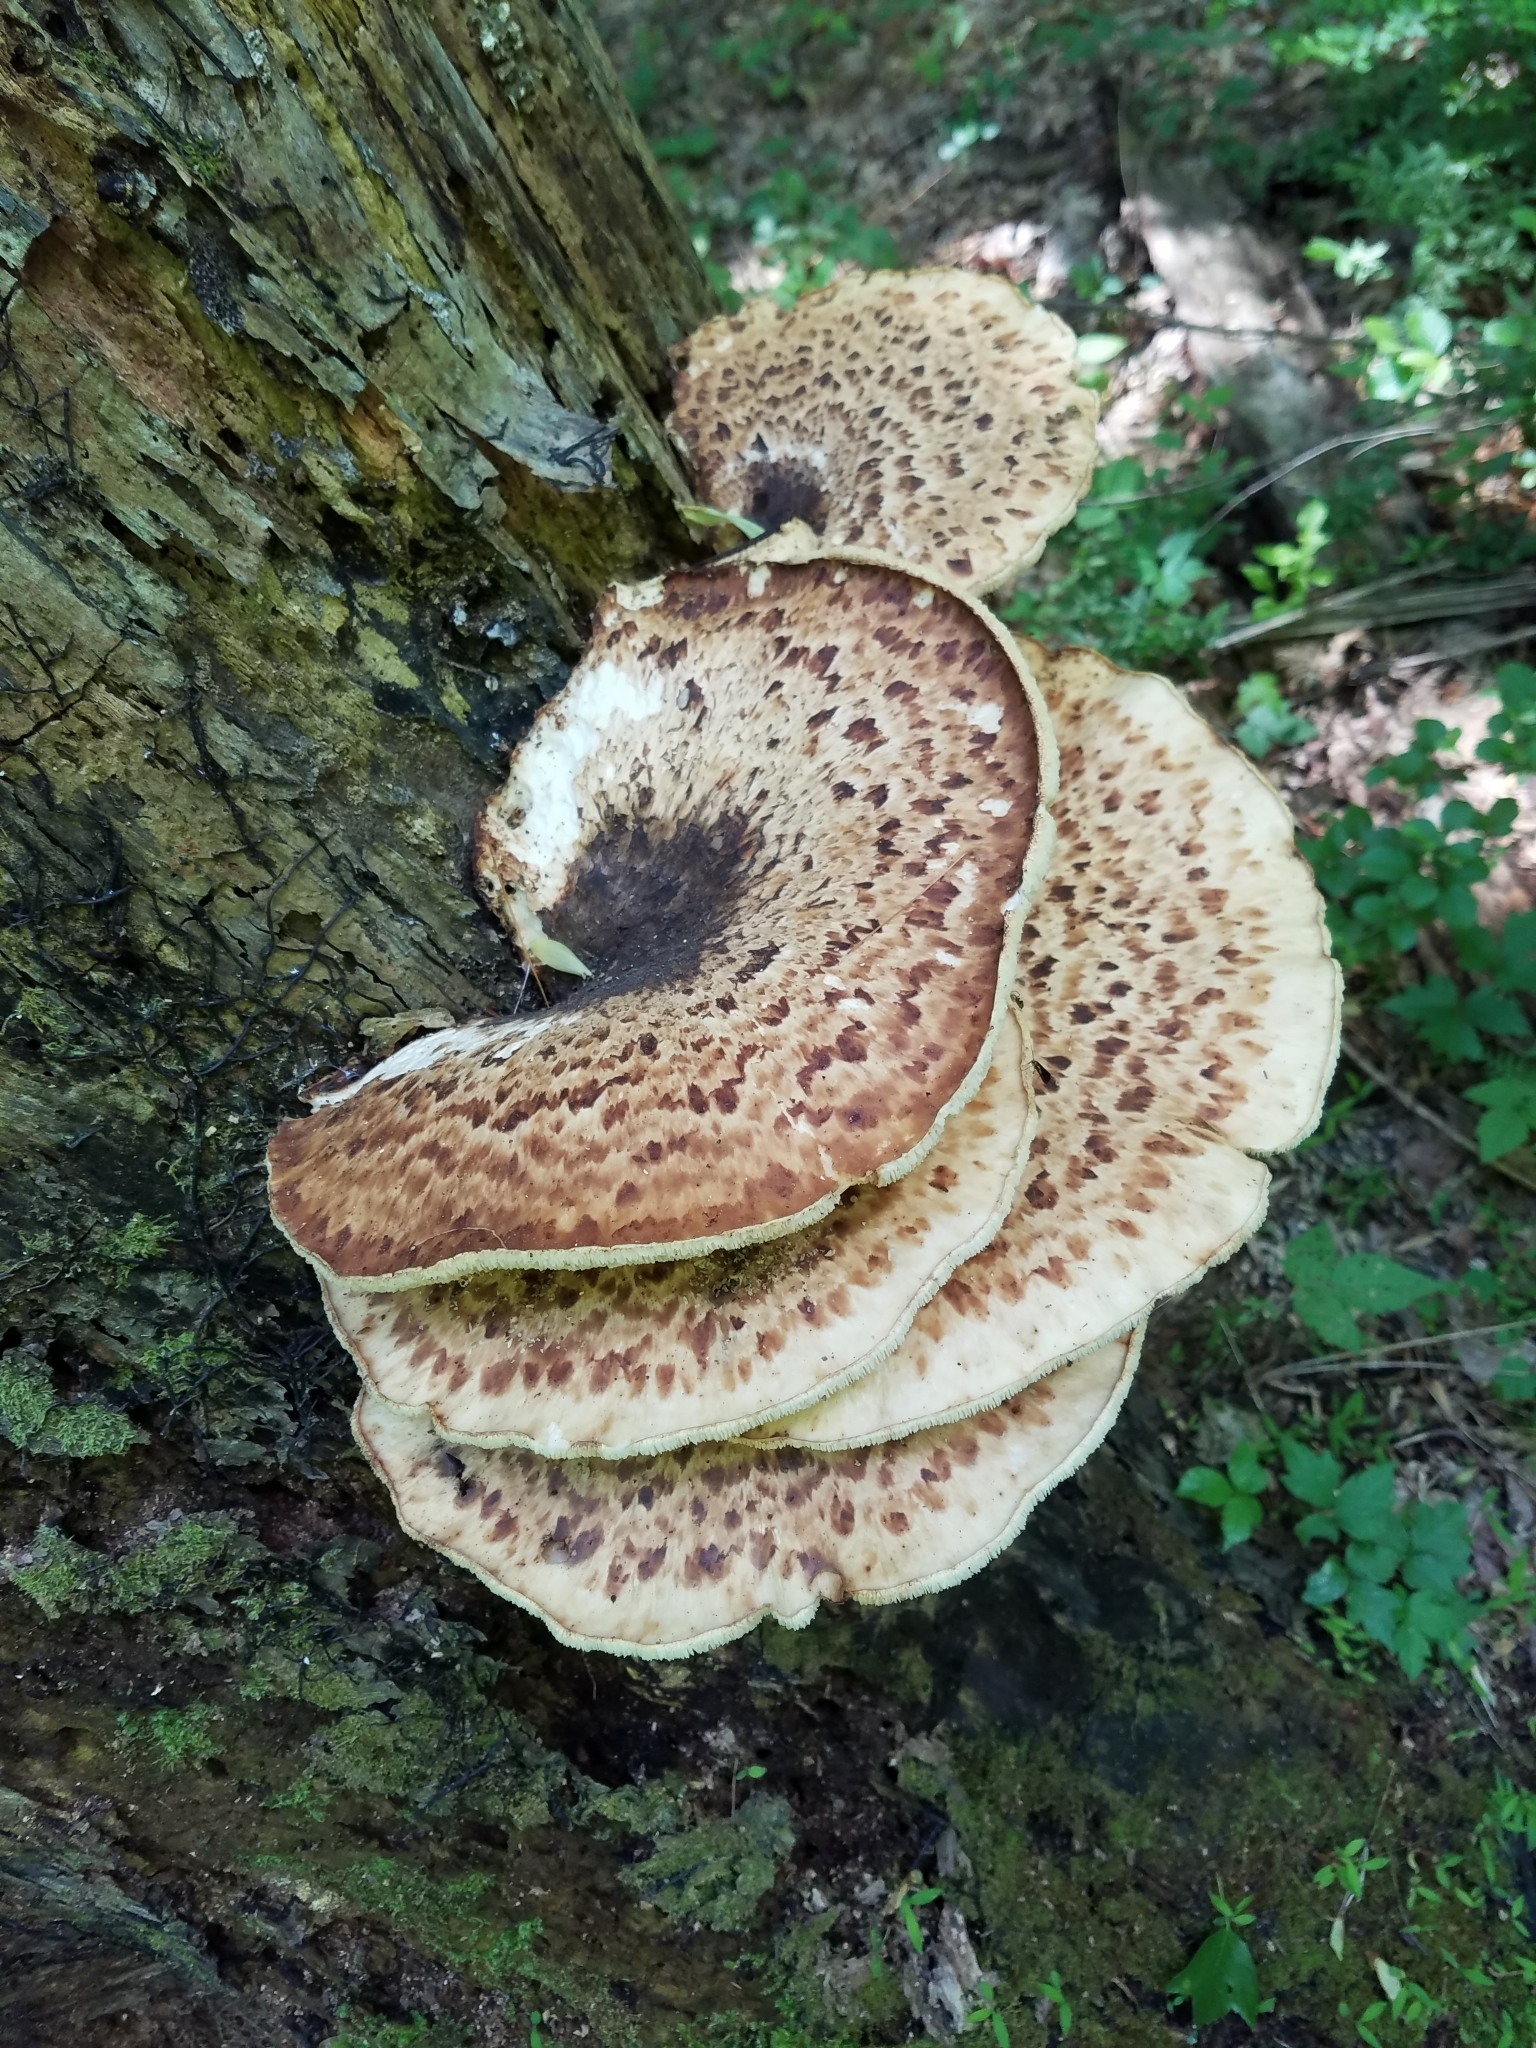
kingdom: Fungi
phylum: Basidiomycota
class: Agaricomycetes
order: Polyporales
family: Polyporaceae
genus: Cerioporus
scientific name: Cerioporus squamosus
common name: Dryad's saddle
